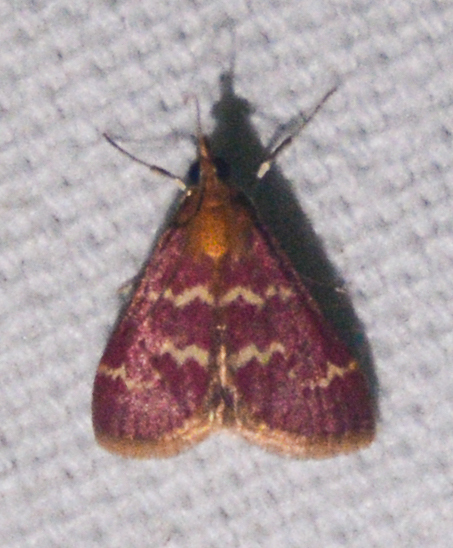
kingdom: Animalia
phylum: Arthropoda
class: Insecta
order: Lepidoptera
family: Crambidae
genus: Pyrausta
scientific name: Pyrausta signatalis
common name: Raspberry pyrausta moth
